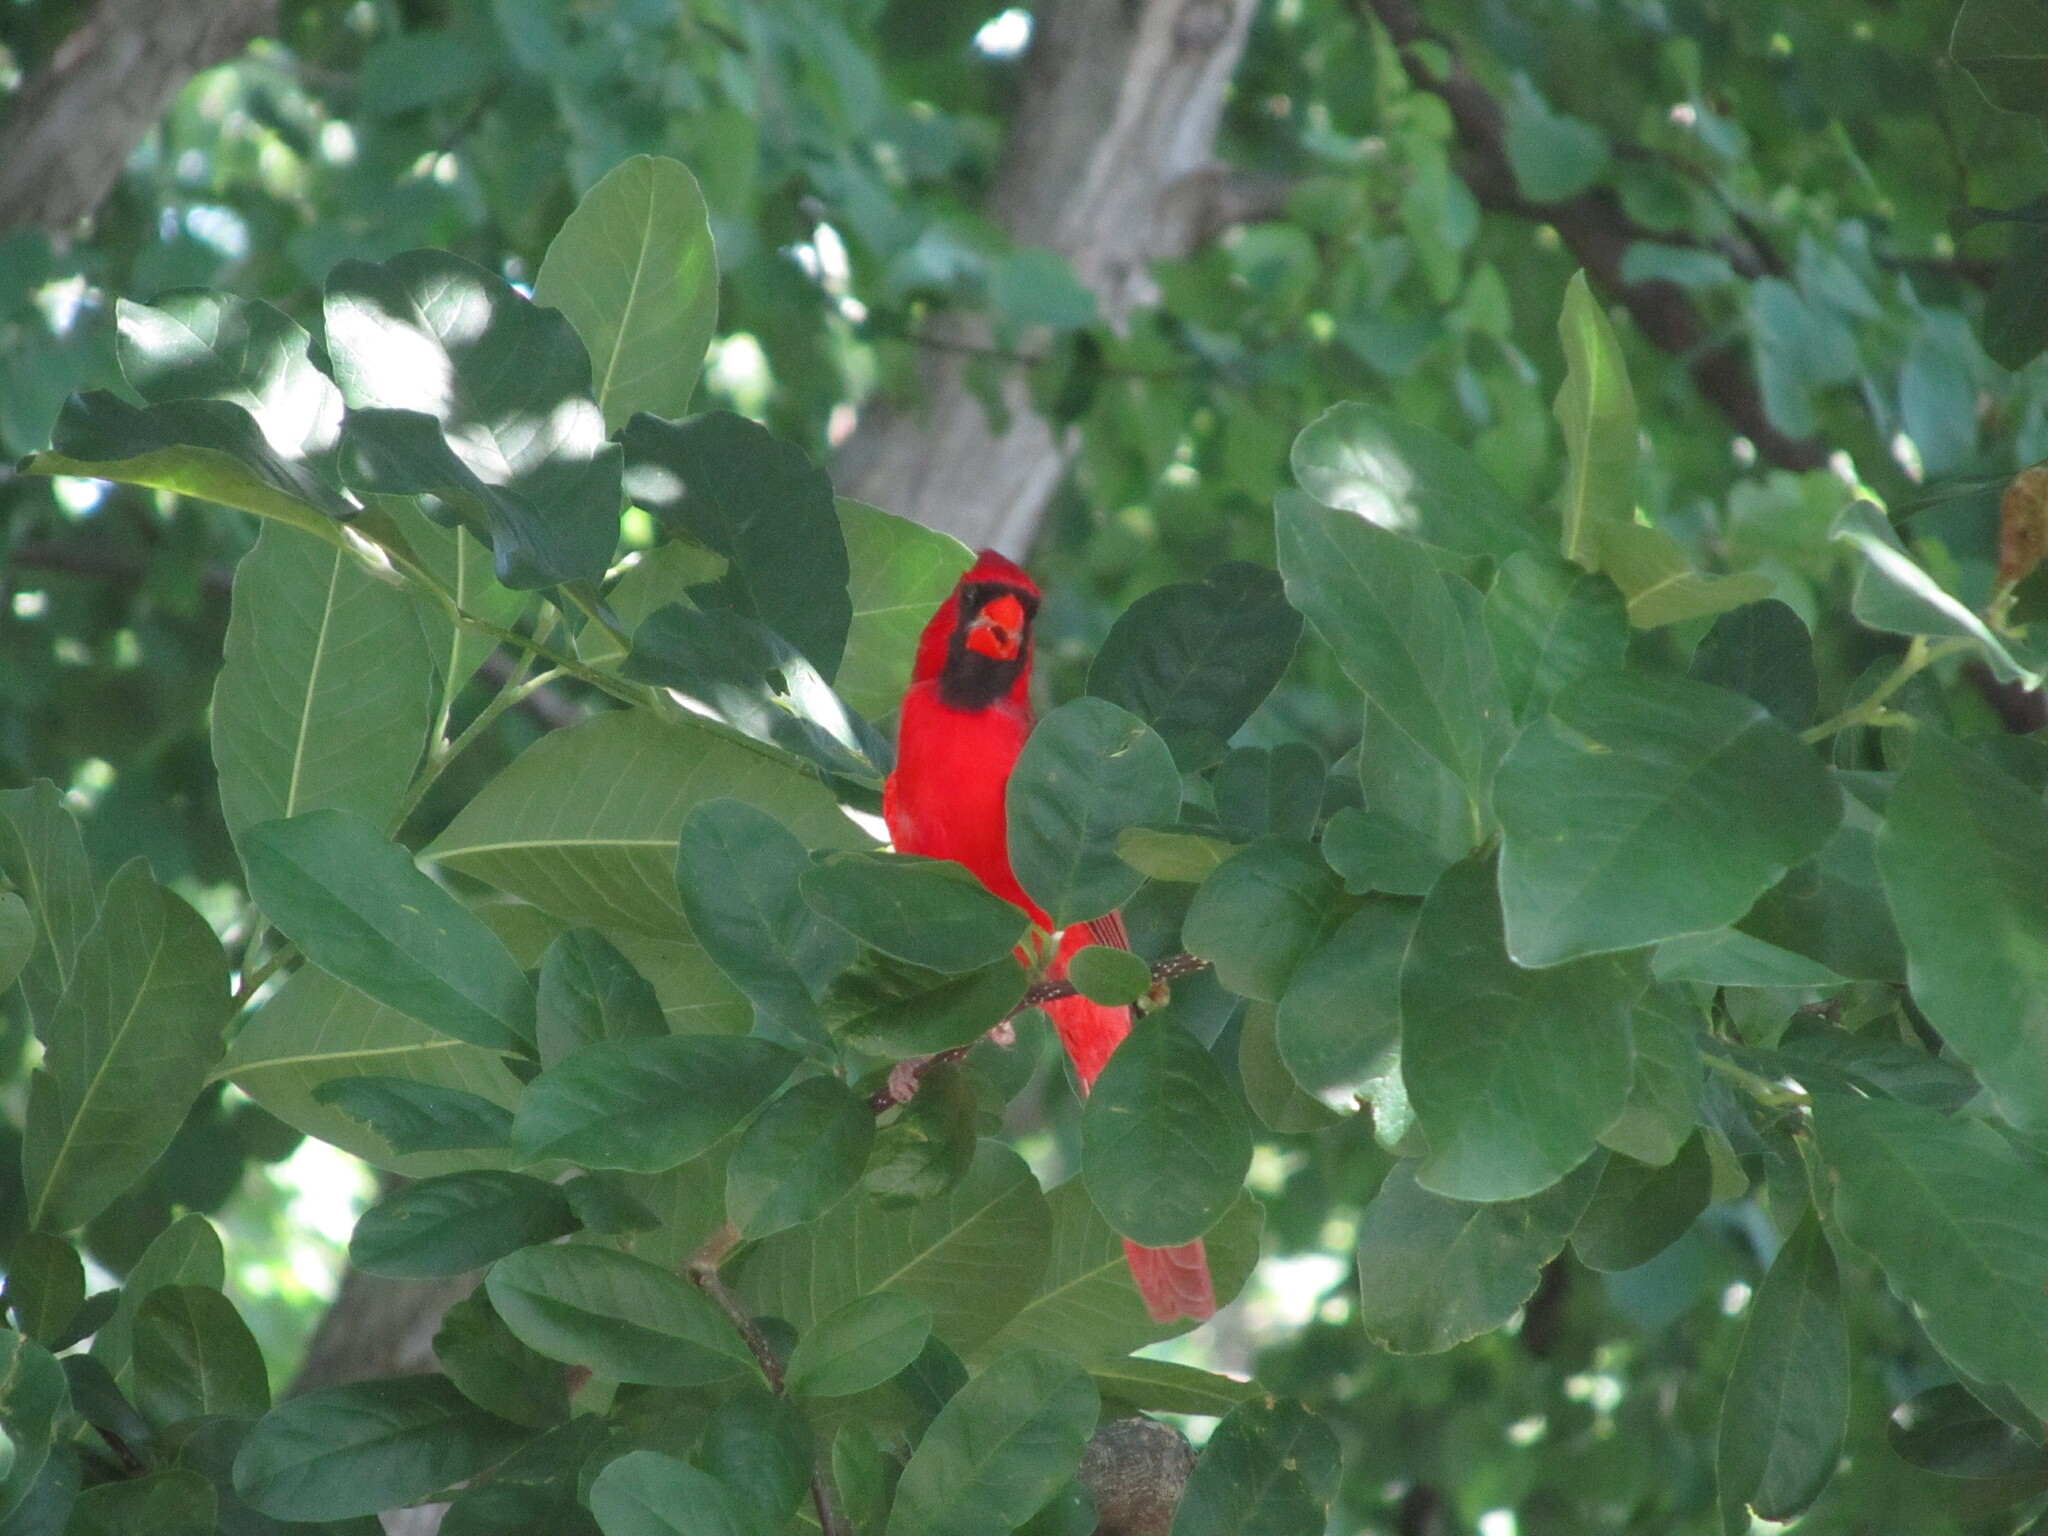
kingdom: Animalia
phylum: Chordata
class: Aves
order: Passeriformes
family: Cardinalidae
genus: Cardinalis
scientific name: Cardinalis cardinalis
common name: Northern cardinal
